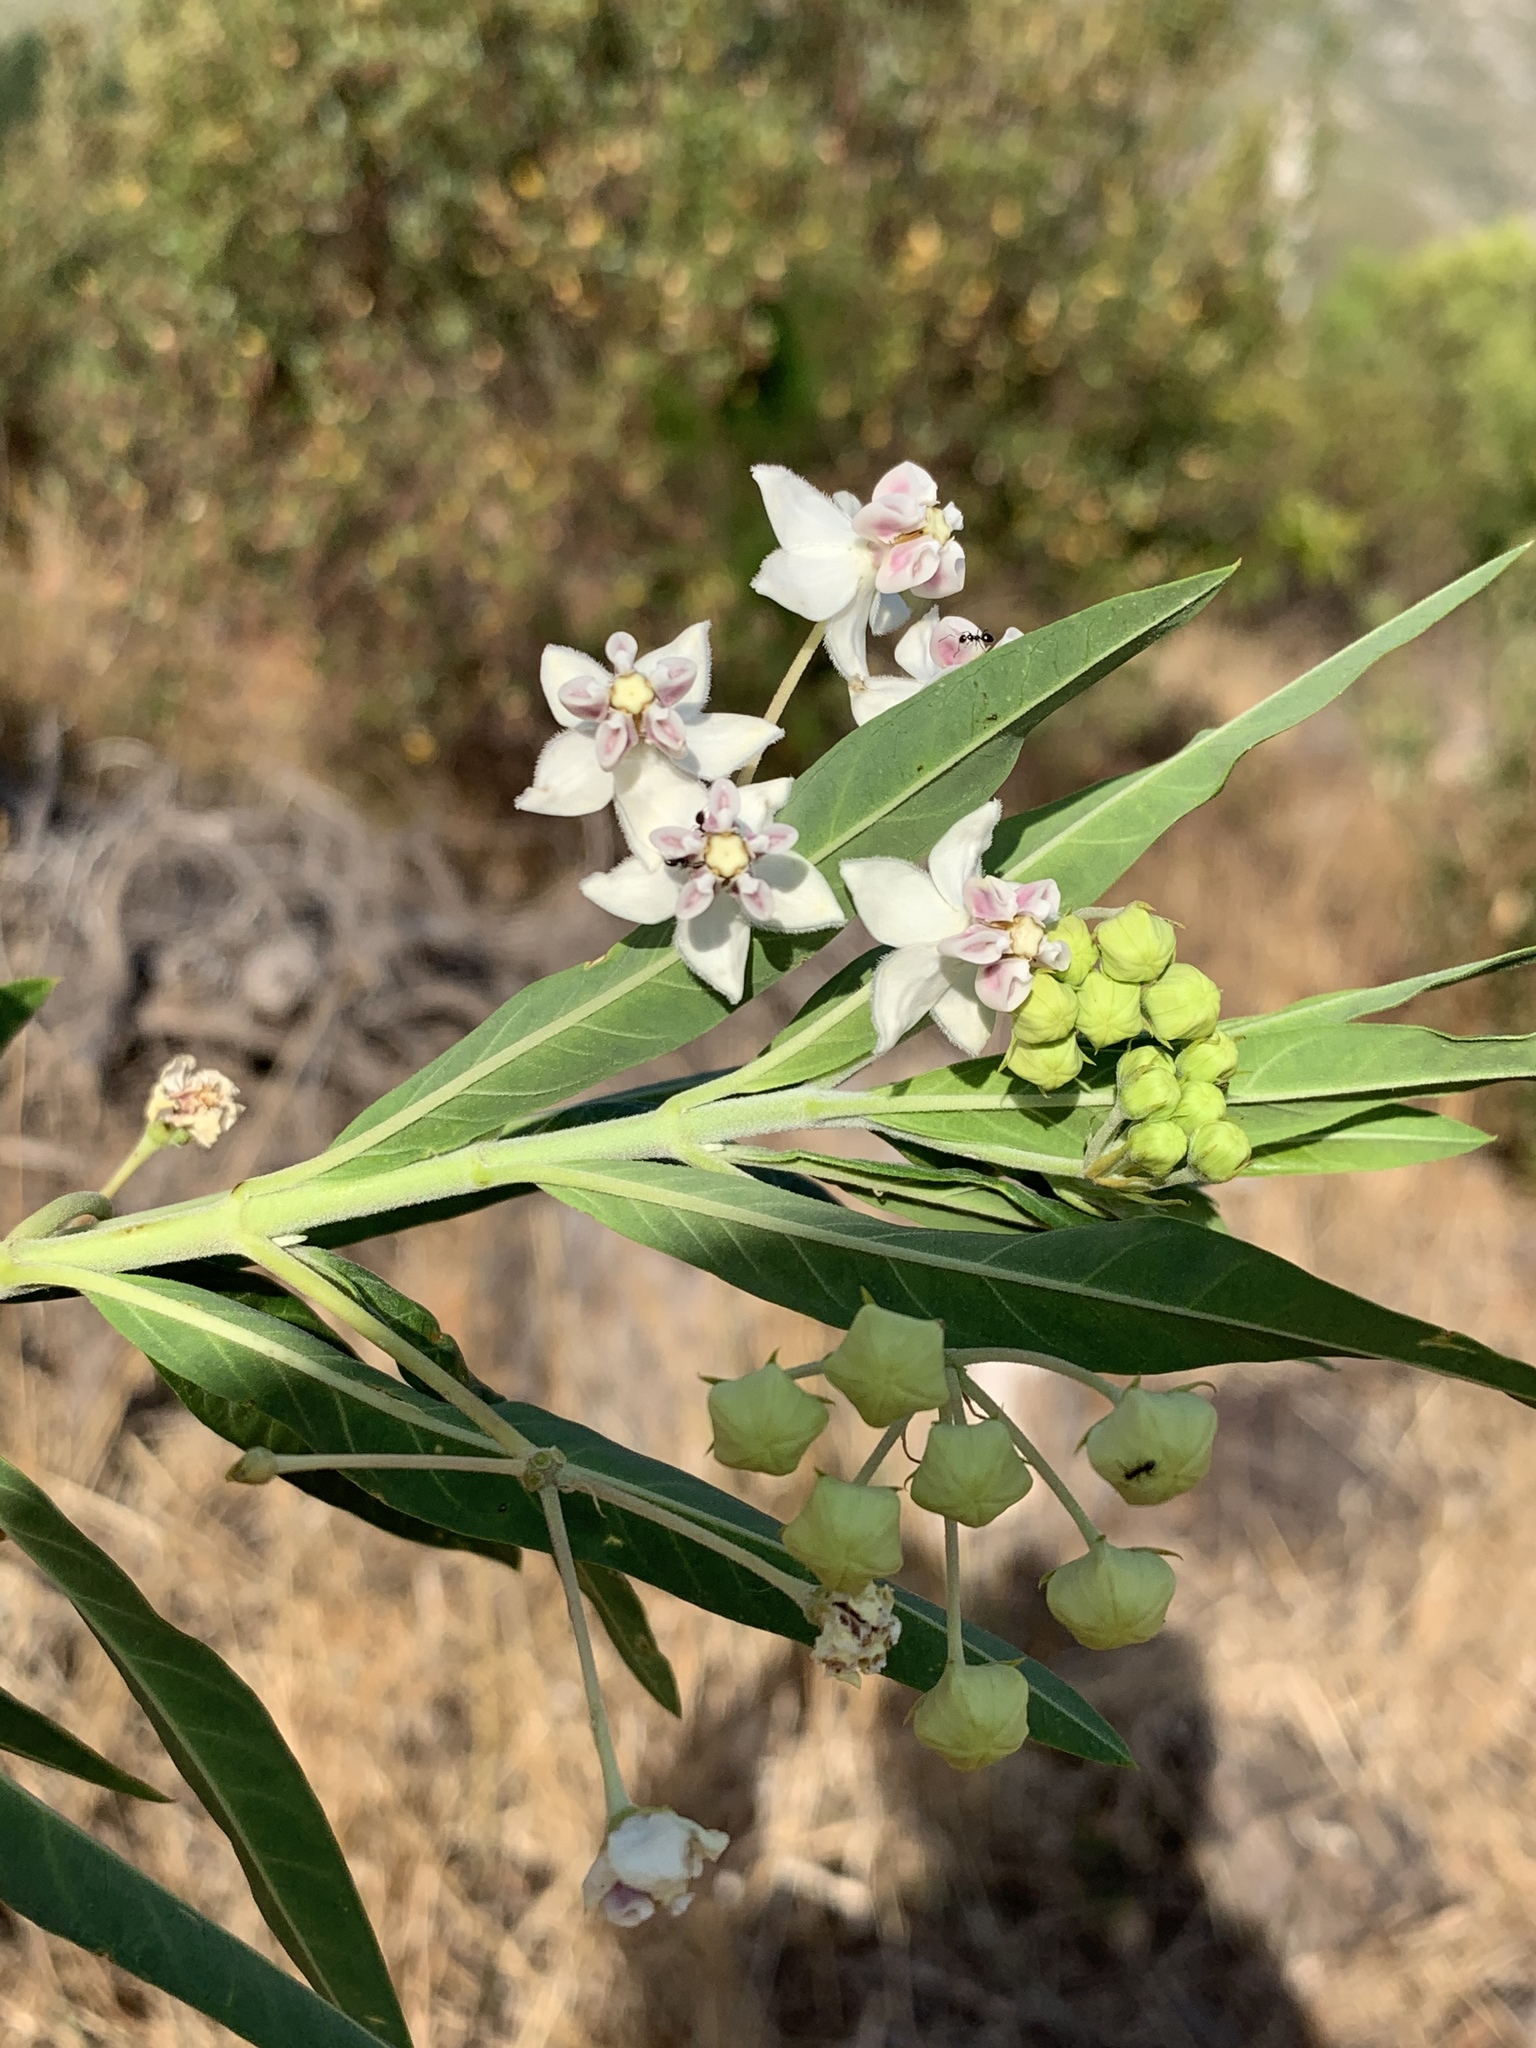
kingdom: Plantae
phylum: Tracheophyta
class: Magnoliopsida
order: Gentianales
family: Apocynaceae
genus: Gomphocarpus
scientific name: Gomphocarpus physocarpus
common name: Balloon cotton bush
